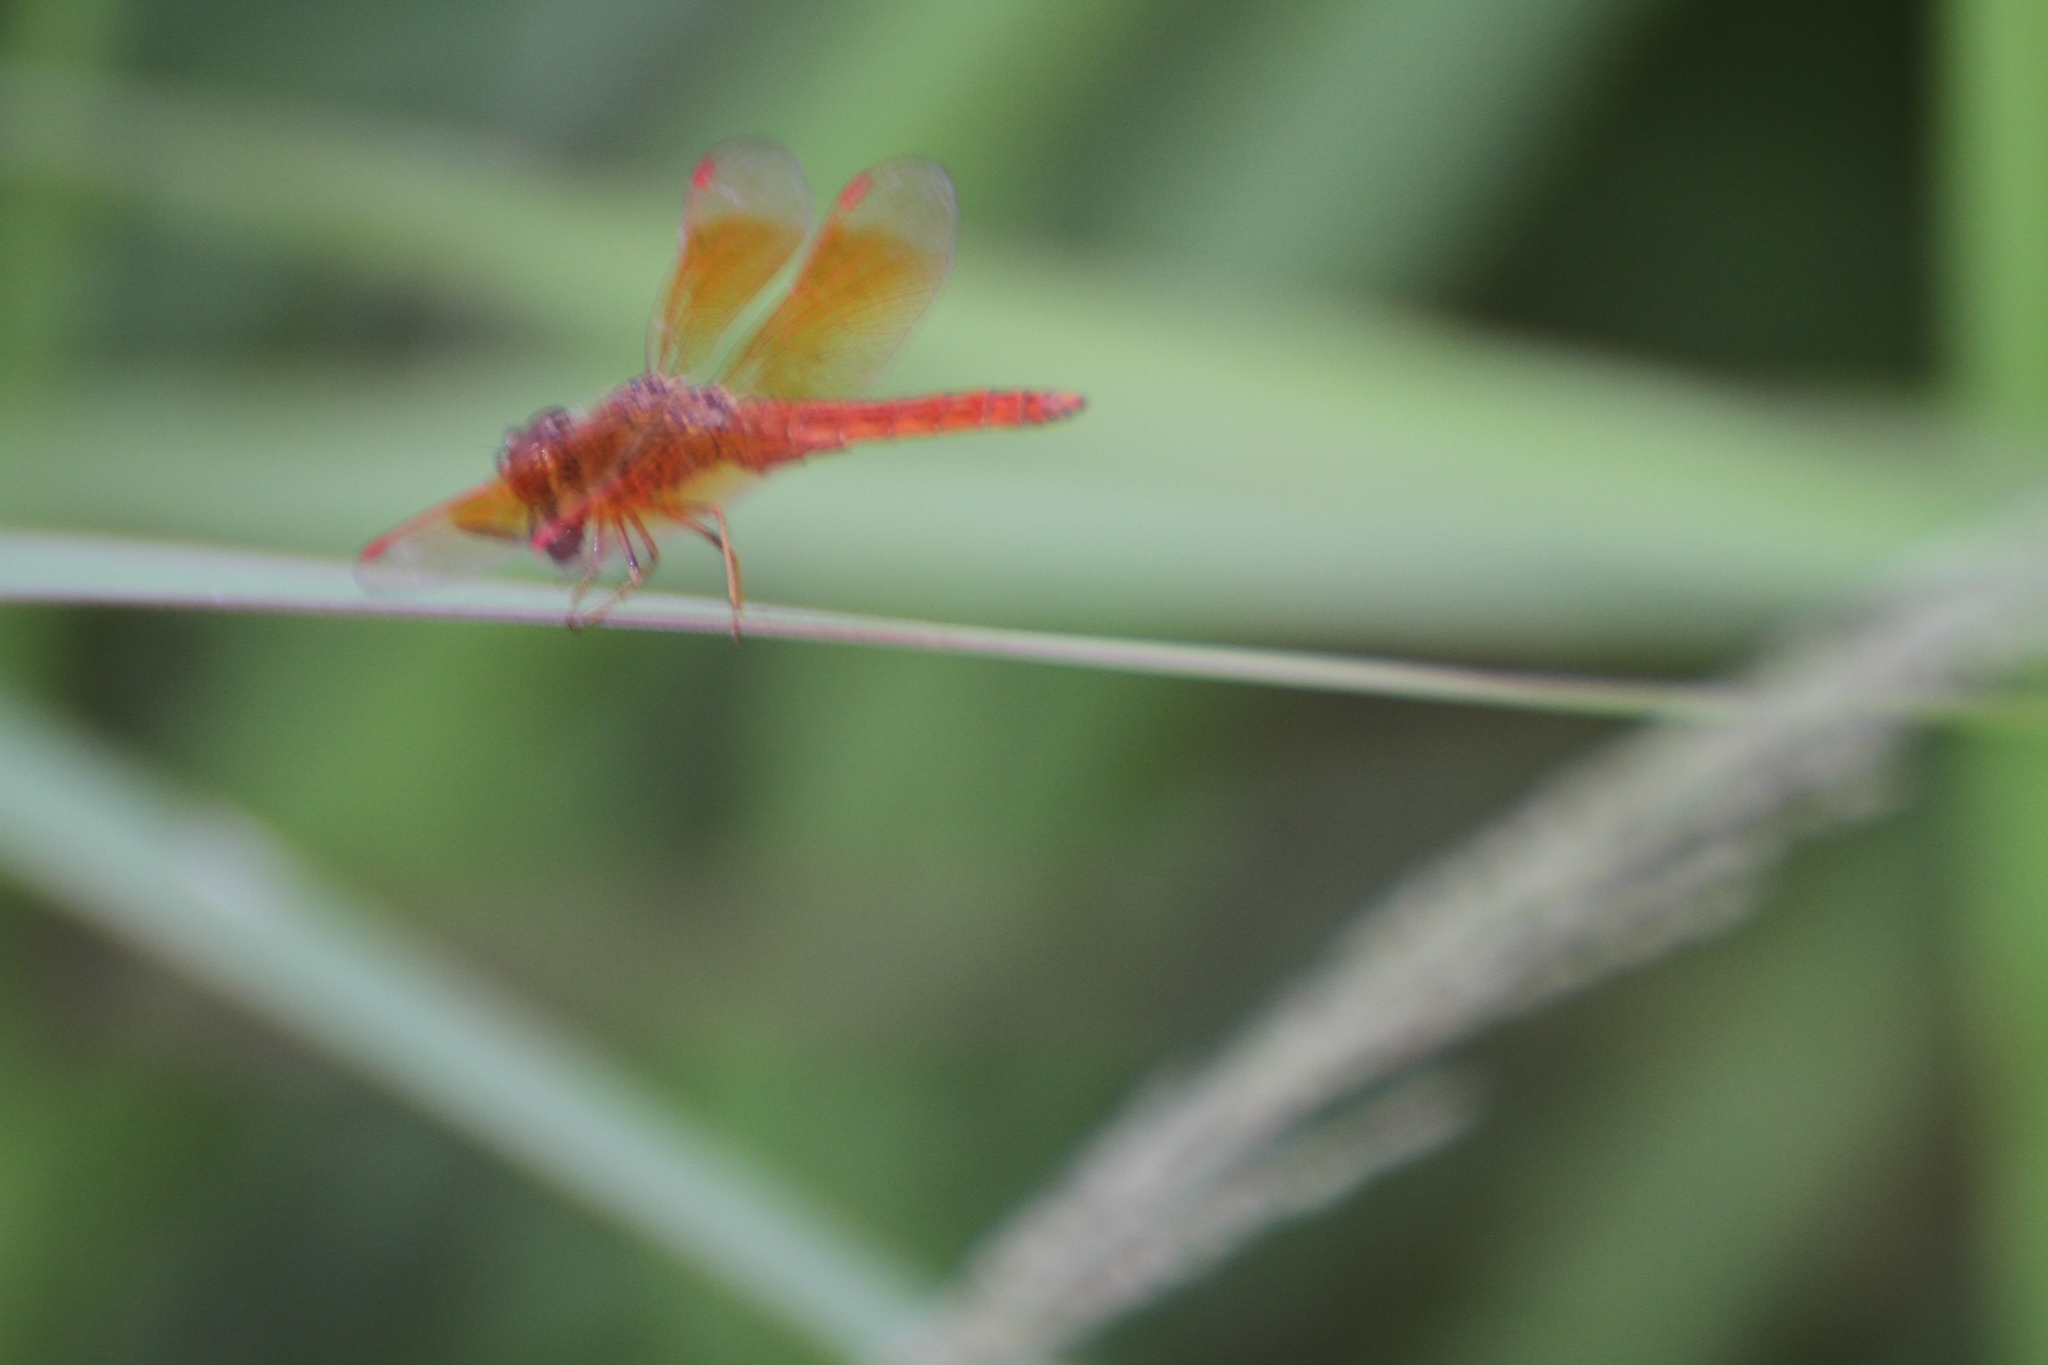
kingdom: Animalia
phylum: Arthropoda
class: Insecta
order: Odonata
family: Libellulidae
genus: Brachythemis
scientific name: Brachythemis contaminata
